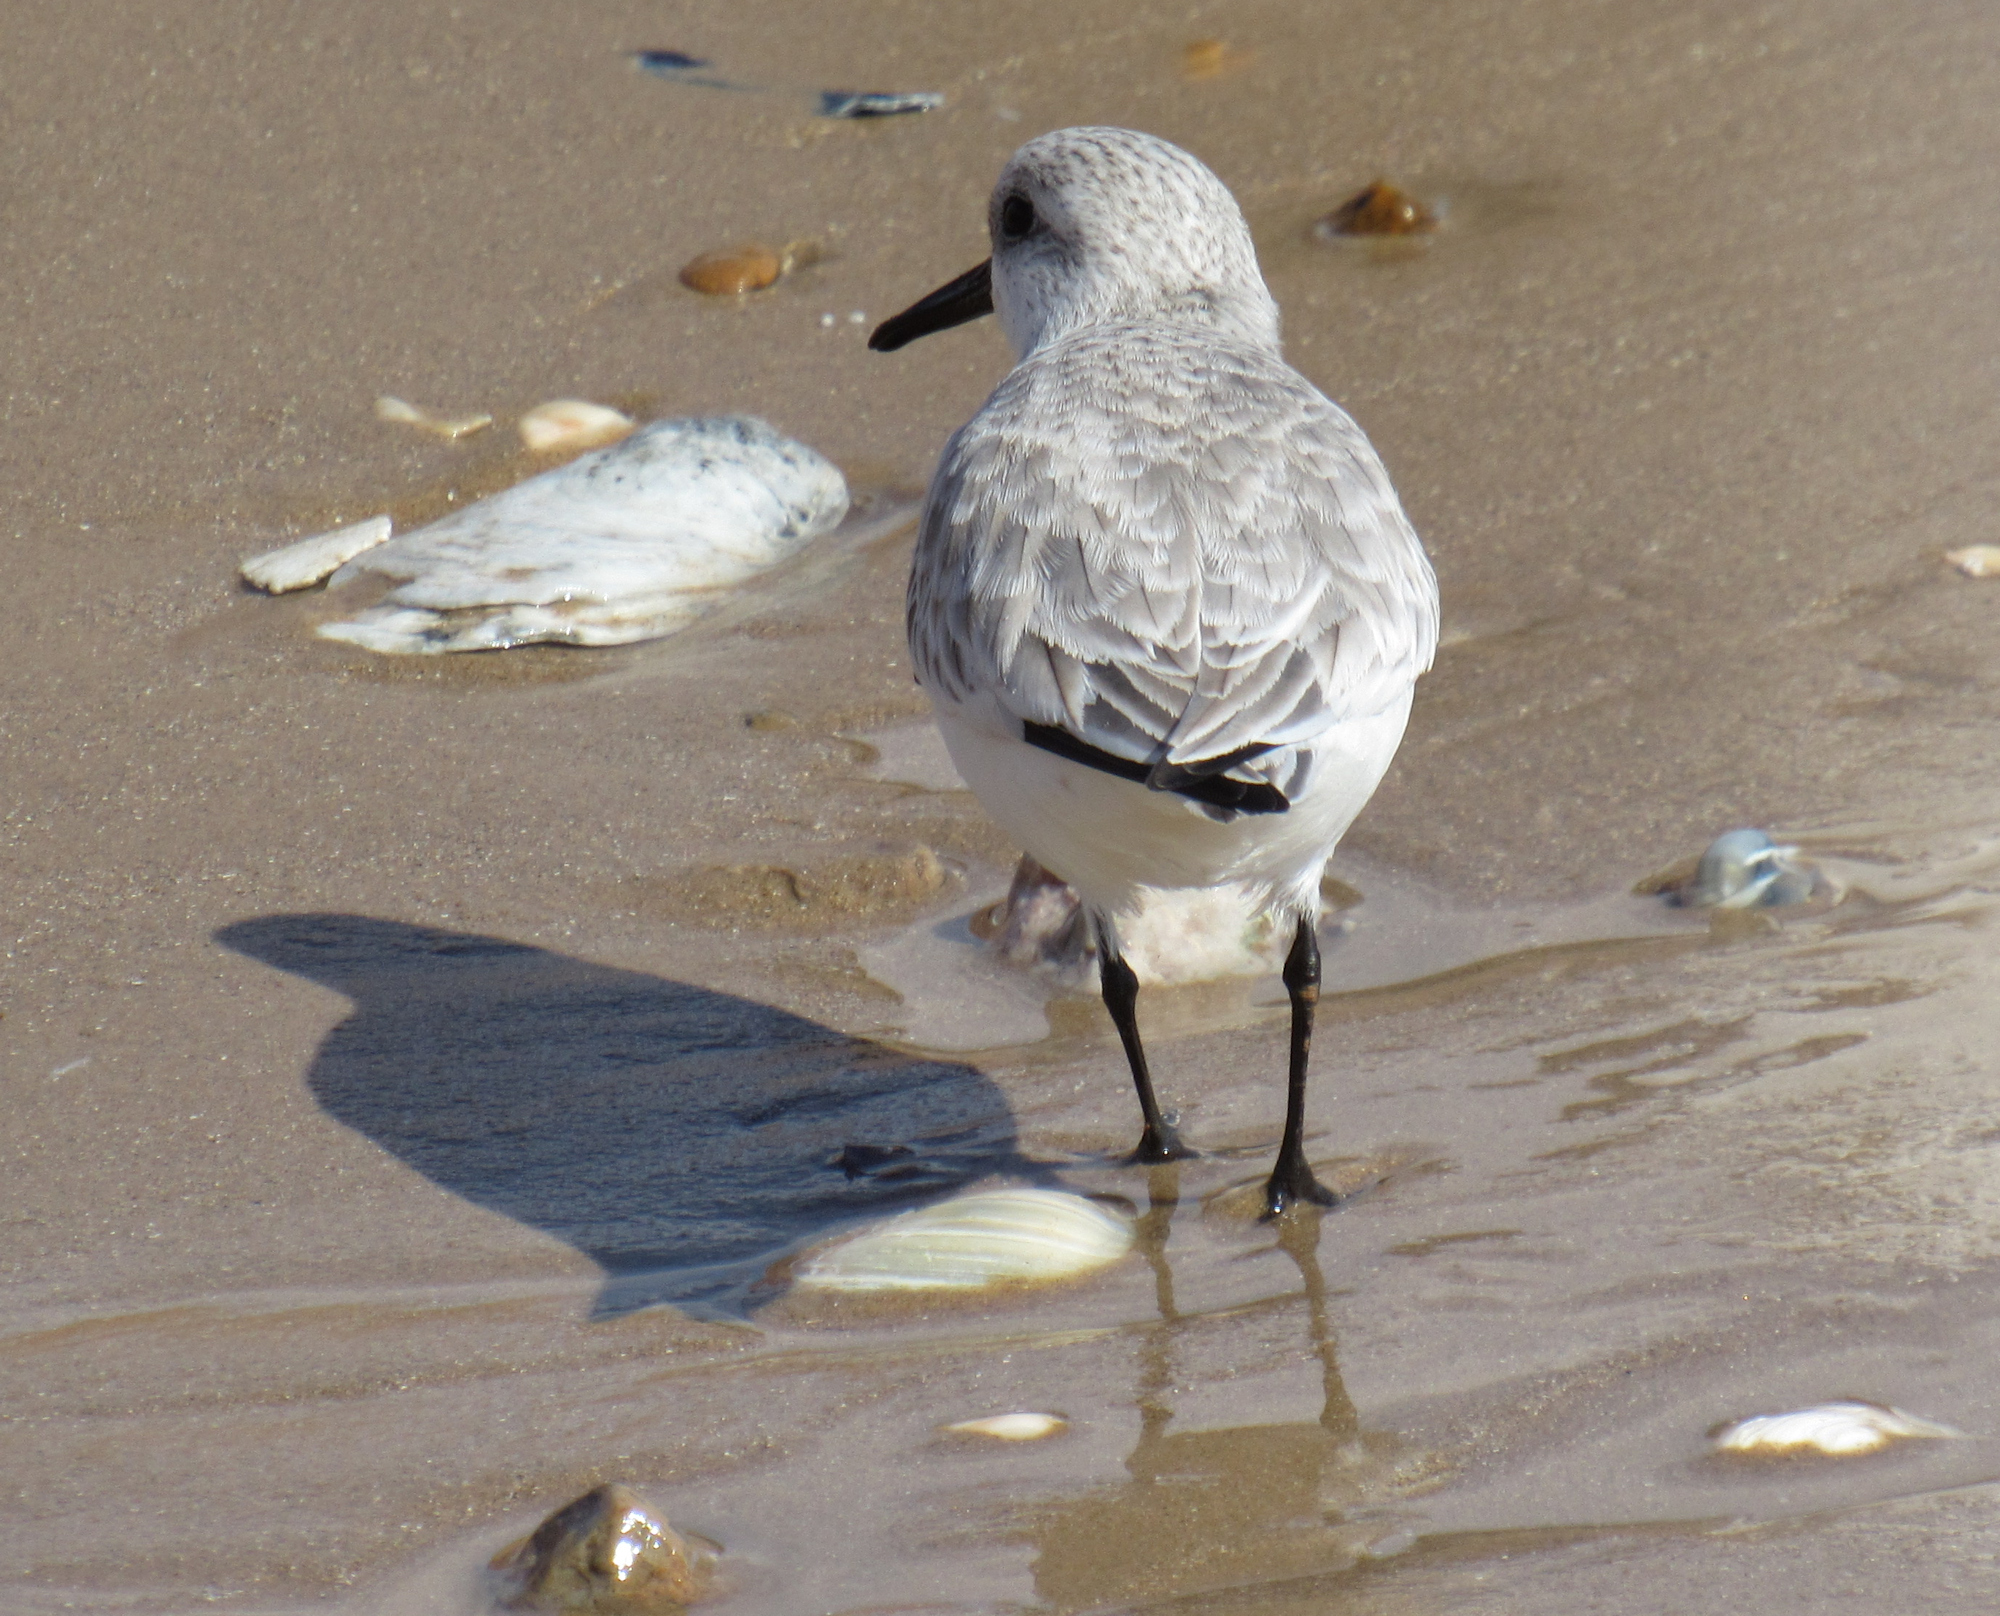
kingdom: Animalia
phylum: Chordata
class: Aves
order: Charadriiformes
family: Scolopacidae
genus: Calidris
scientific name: Calidris alba
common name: Sanderling
